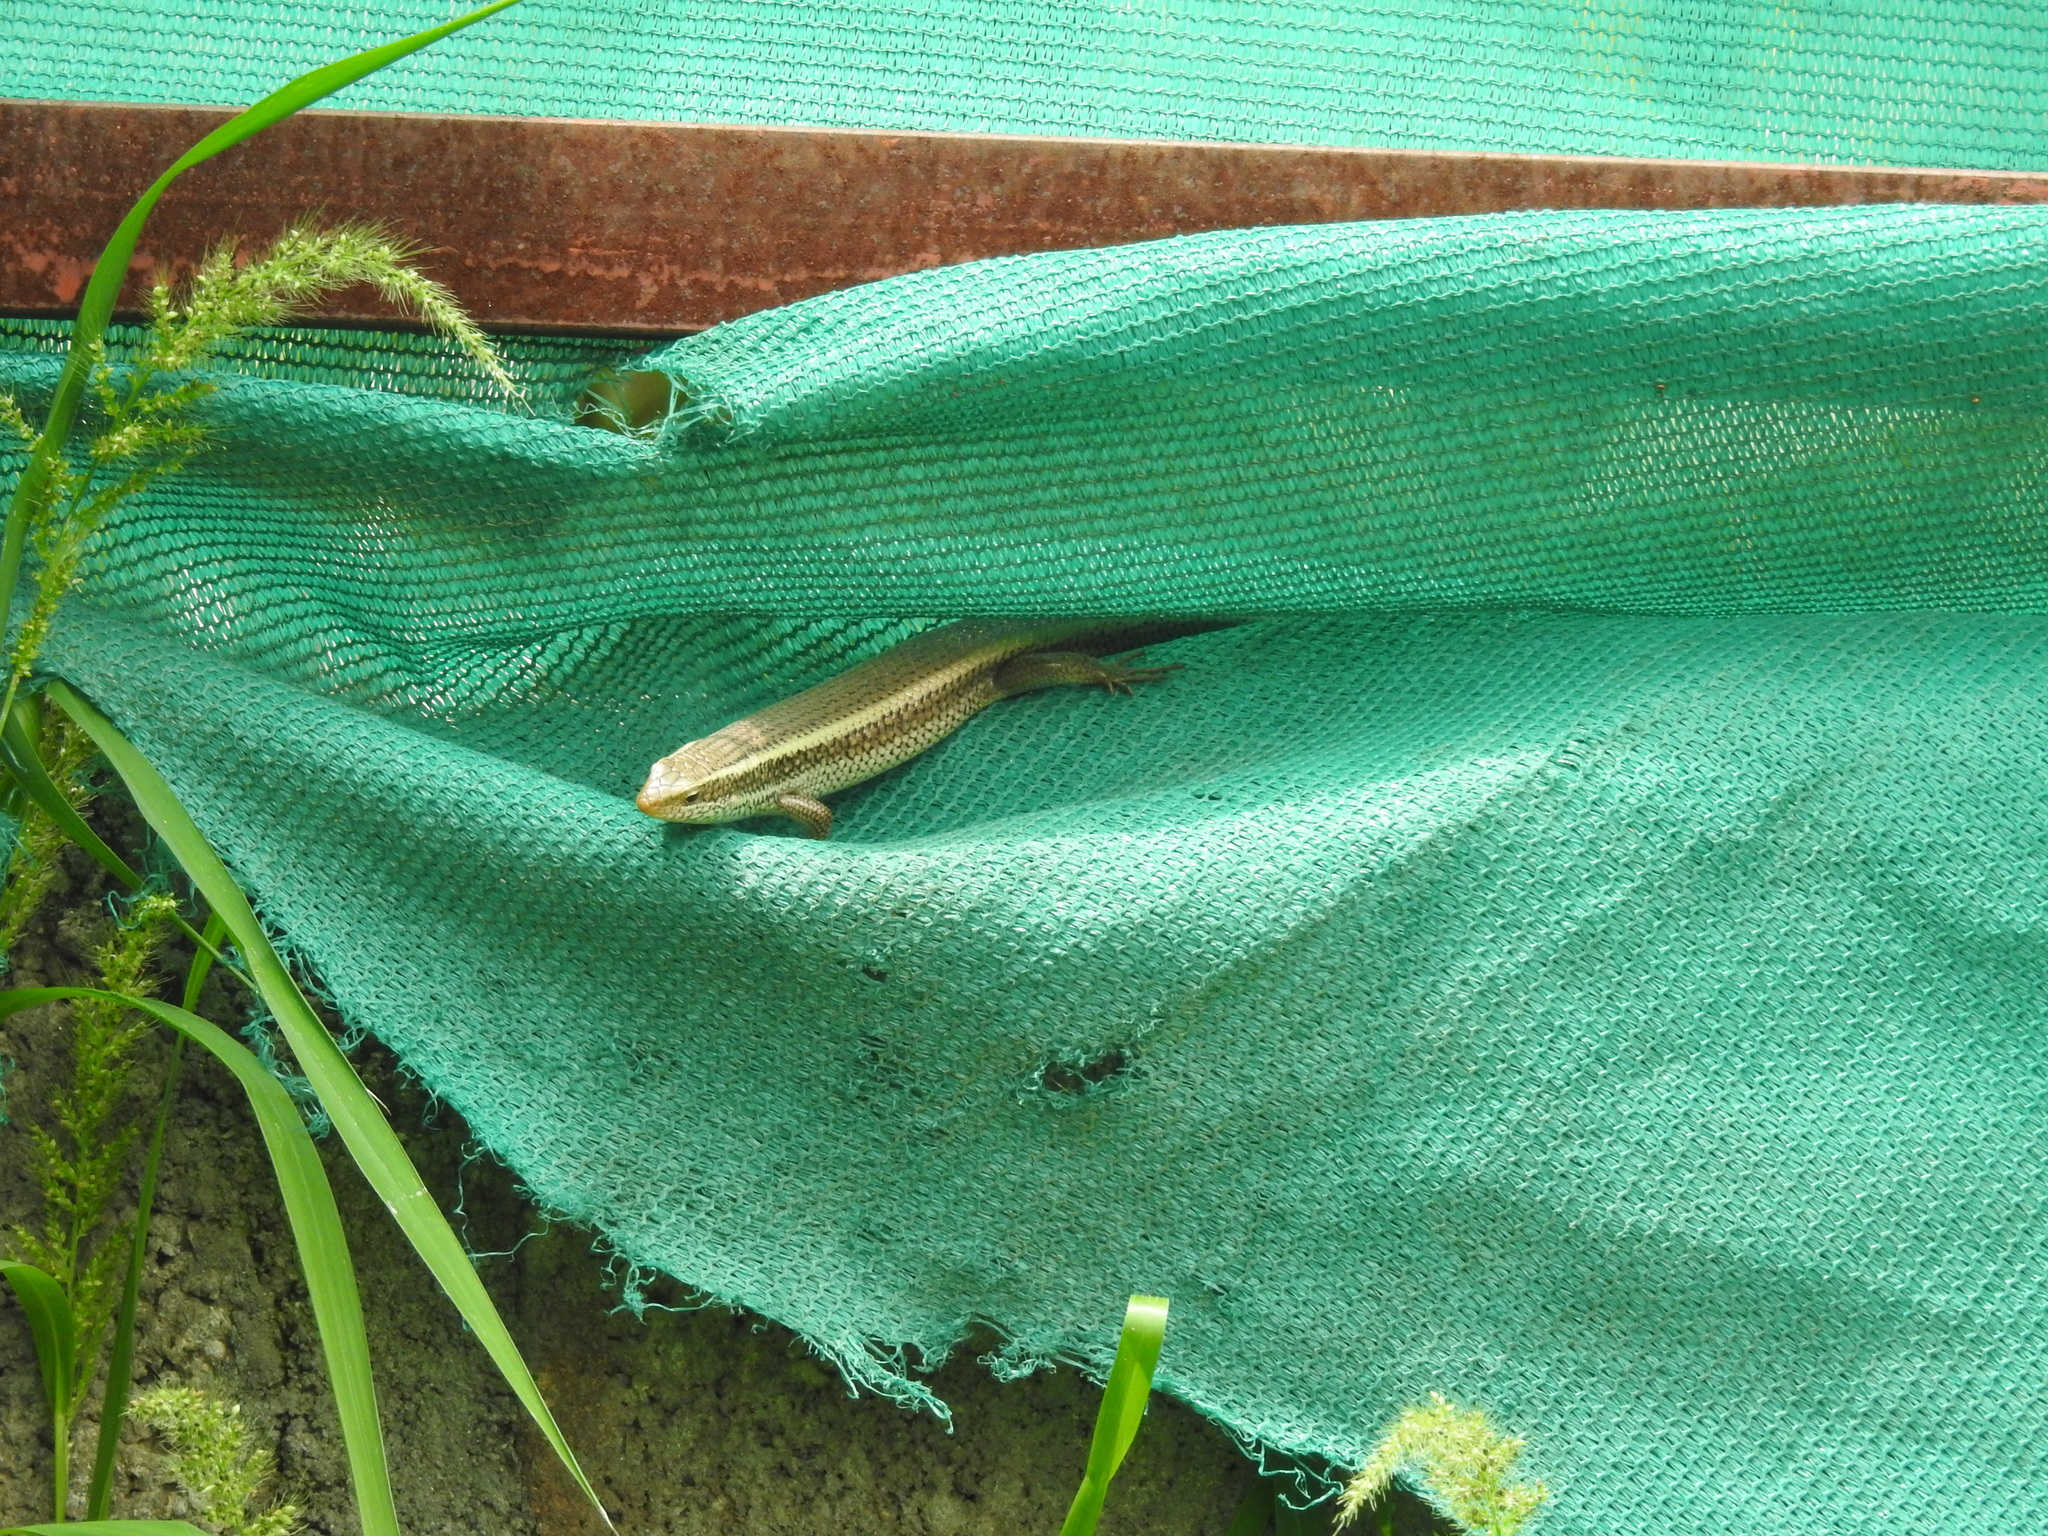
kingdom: Animalia
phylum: Chordata
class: Squamata
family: Scincidae
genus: Eutropis
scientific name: Eutropis carinata
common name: Keeled indian mabuya
